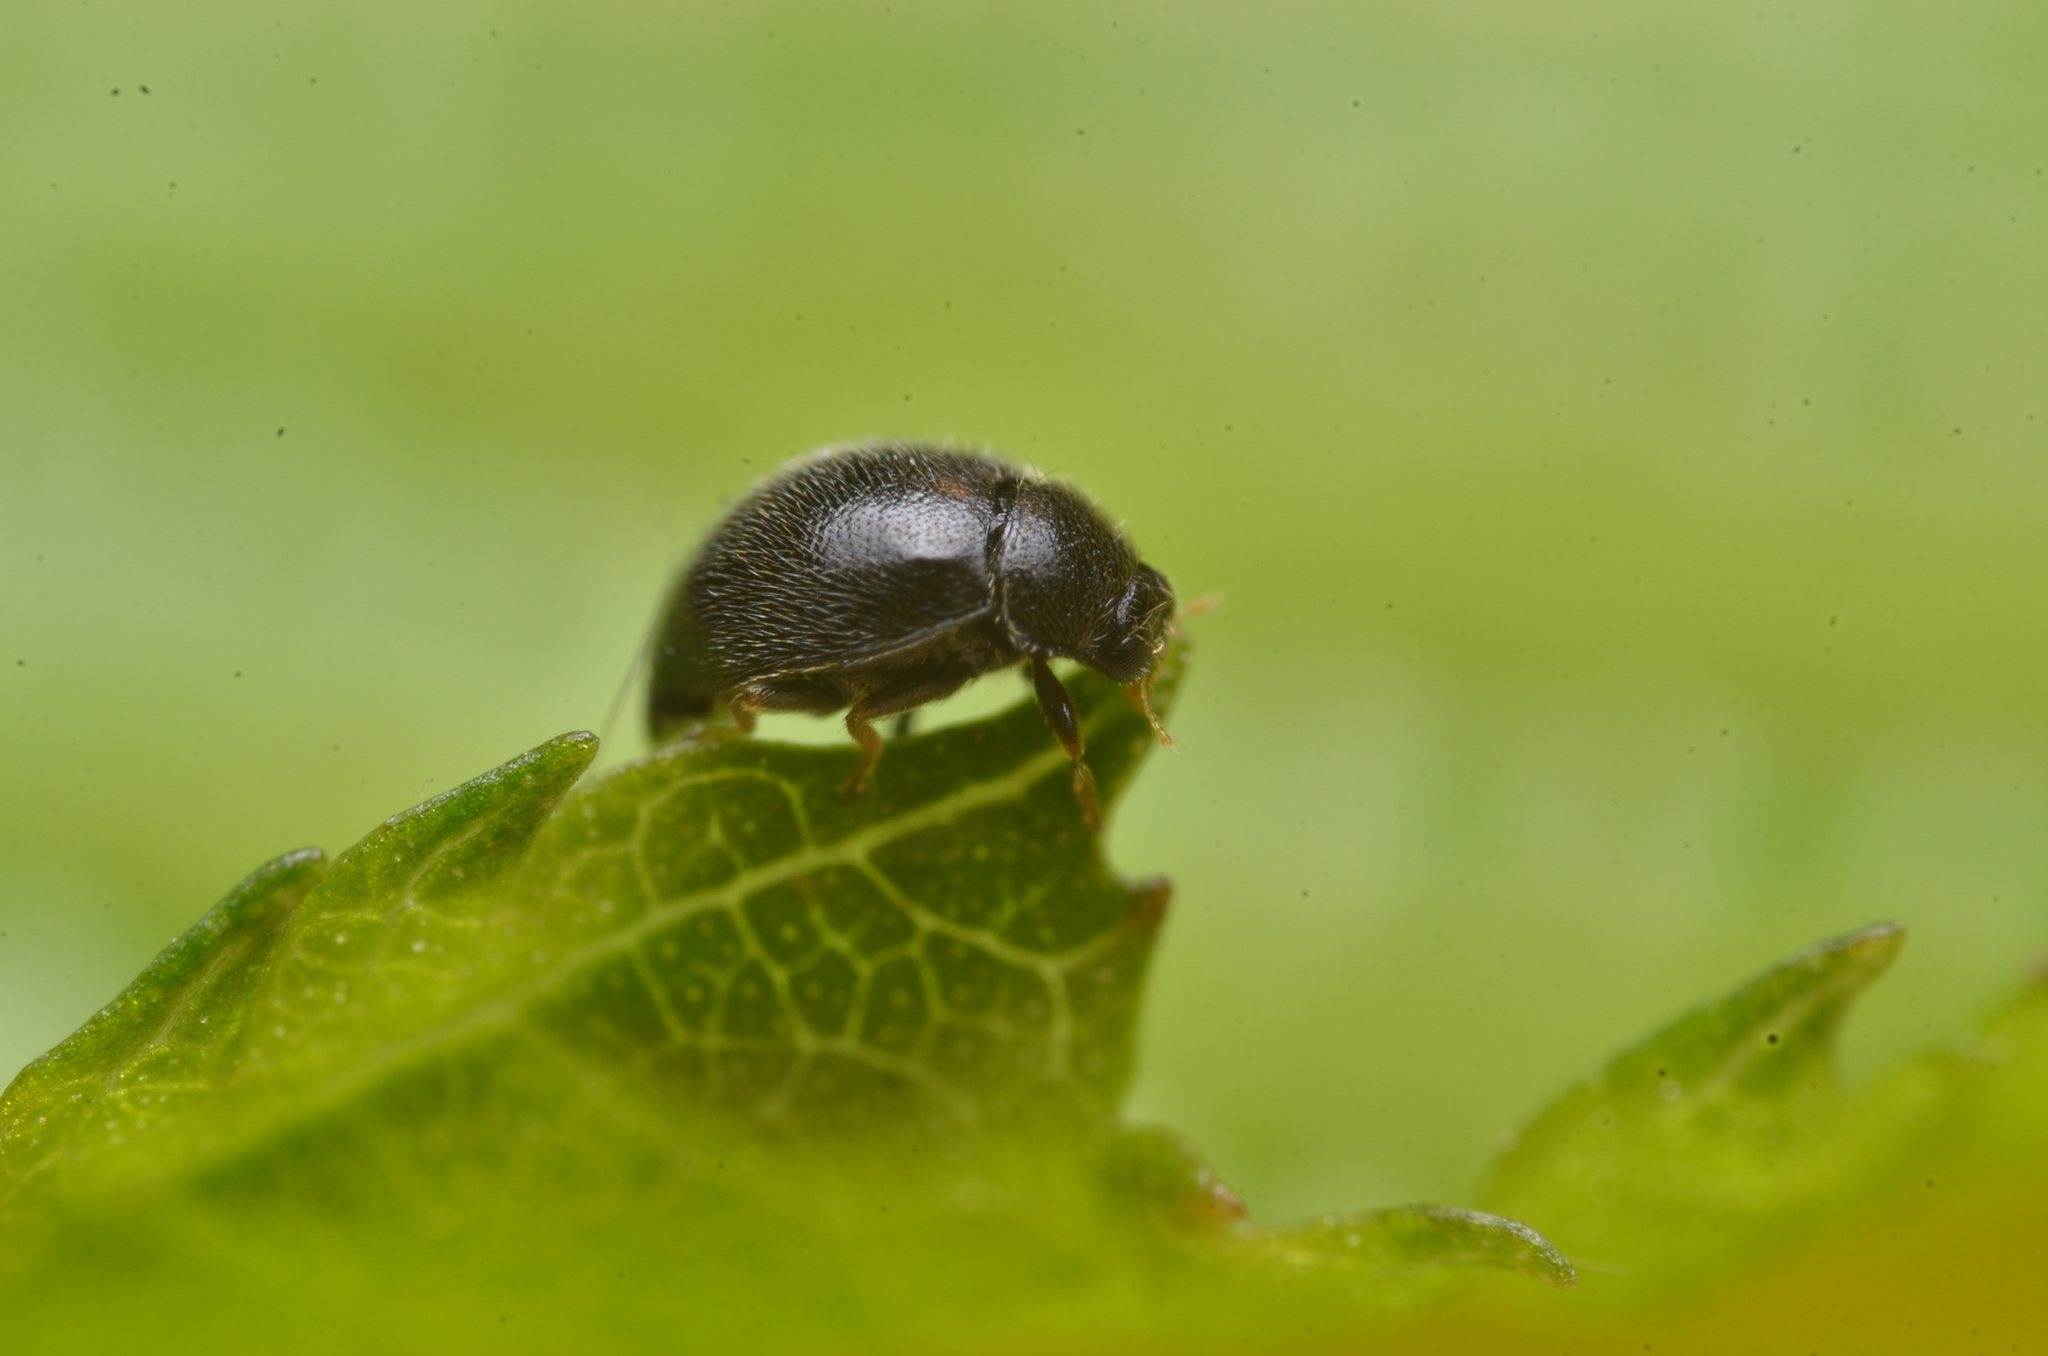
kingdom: Animalia
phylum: Arthropoda
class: Insecta
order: Coleoptera
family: Coccinellidae
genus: Stethorus
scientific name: Stethorus pusillus
